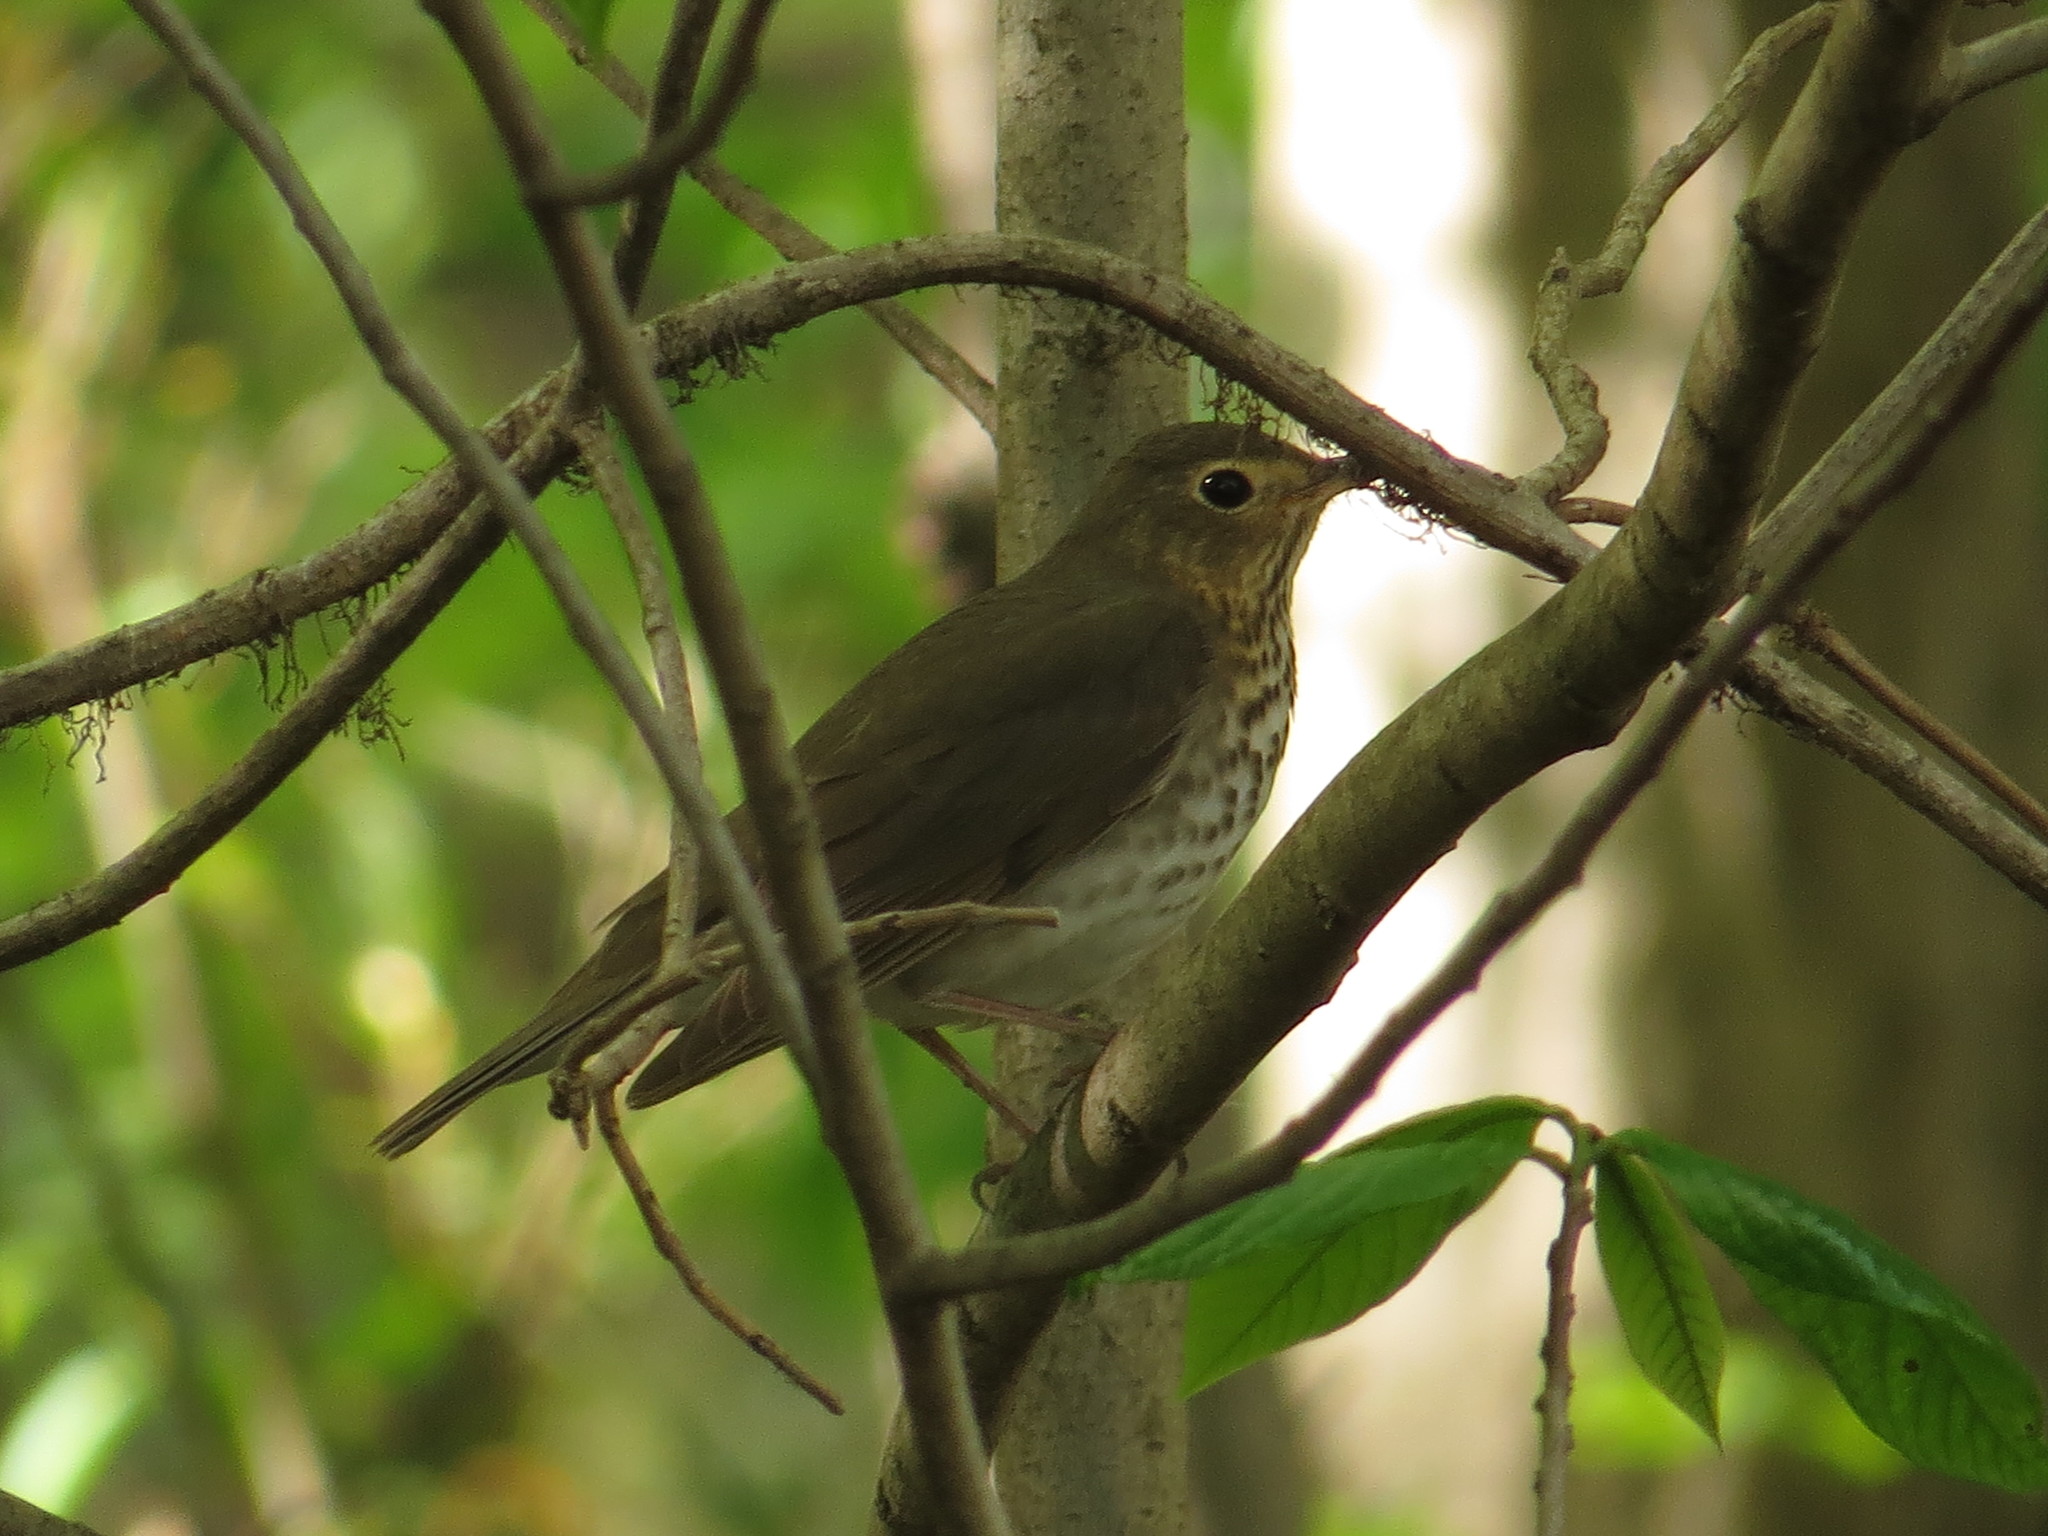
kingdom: Animalia
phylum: Chordata
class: Aves
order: Passeriformes
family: Turdidae
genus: Catharus
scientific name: Catharus ustulatus
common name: Swainson's thrush
